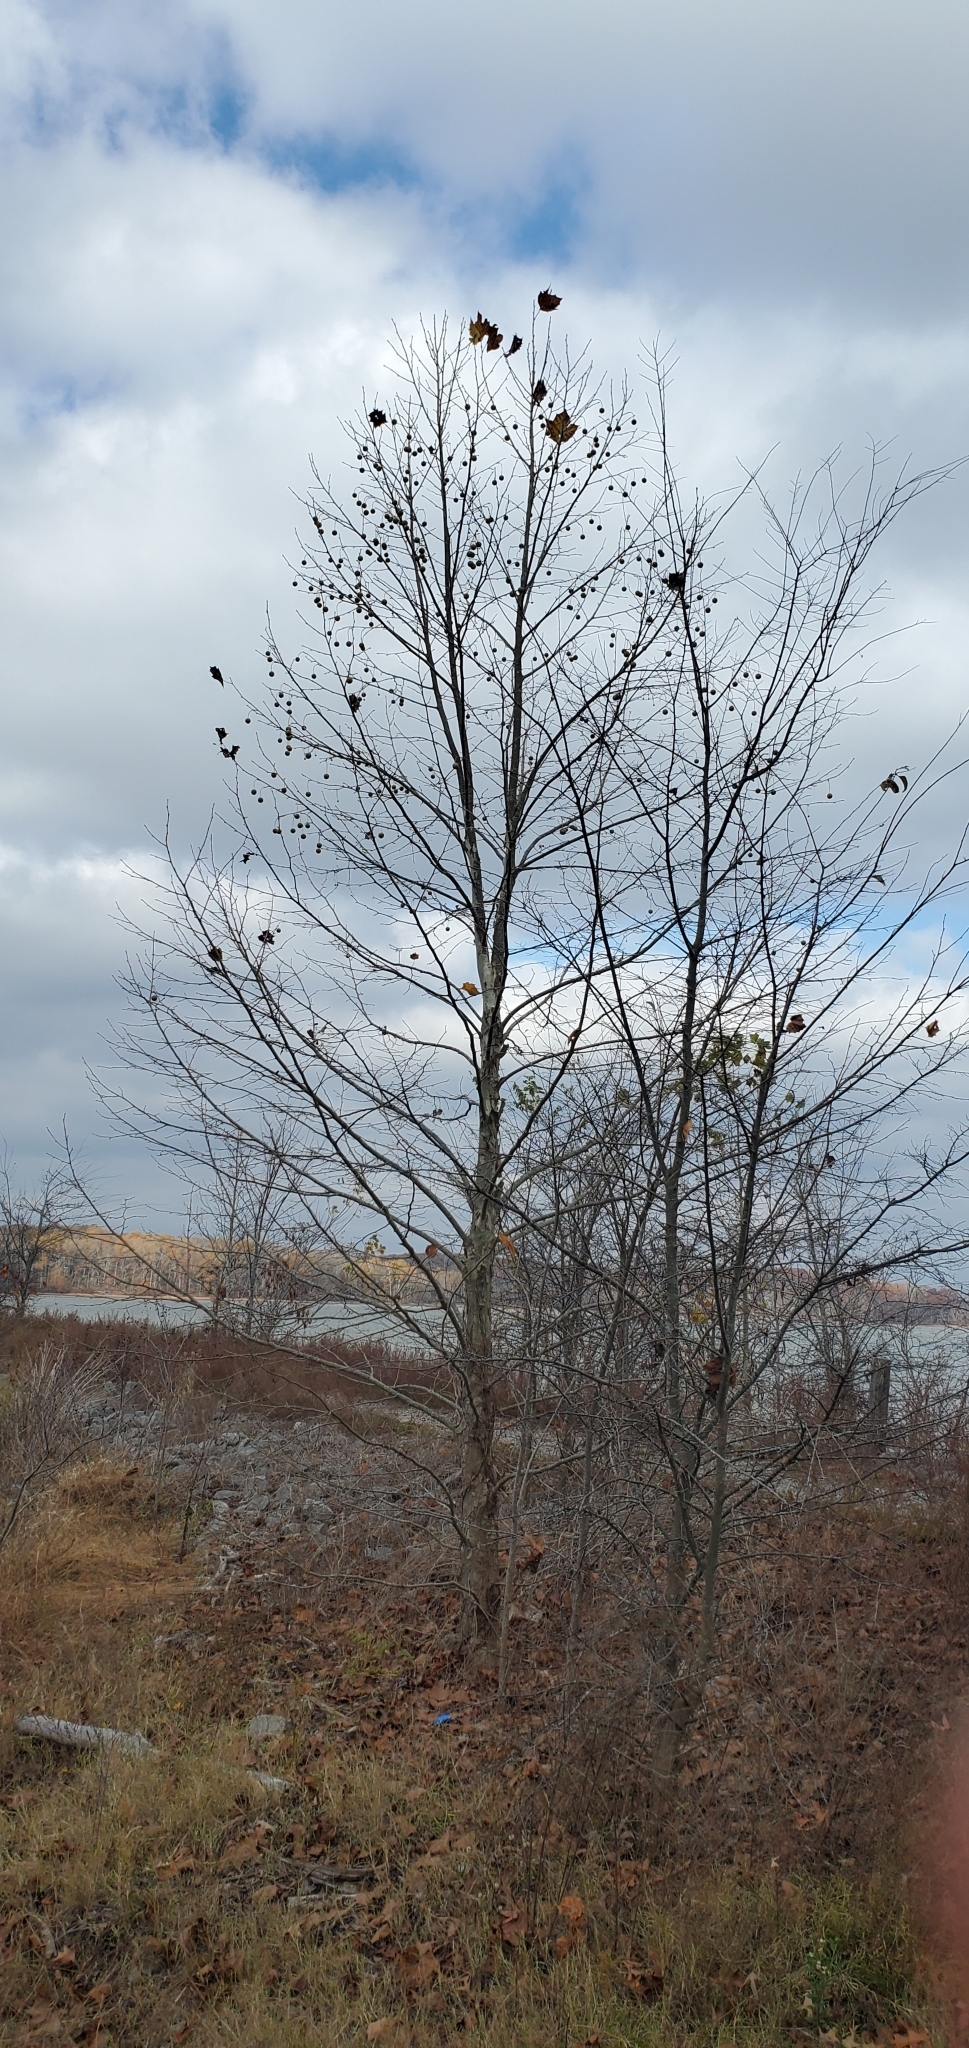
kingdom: Plantae
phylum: Tracheophyta
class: Magnoliopsida
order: Proteales
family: Platanaceae
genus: Platanus
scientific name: Platanus occidentalis
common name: American sycamore
